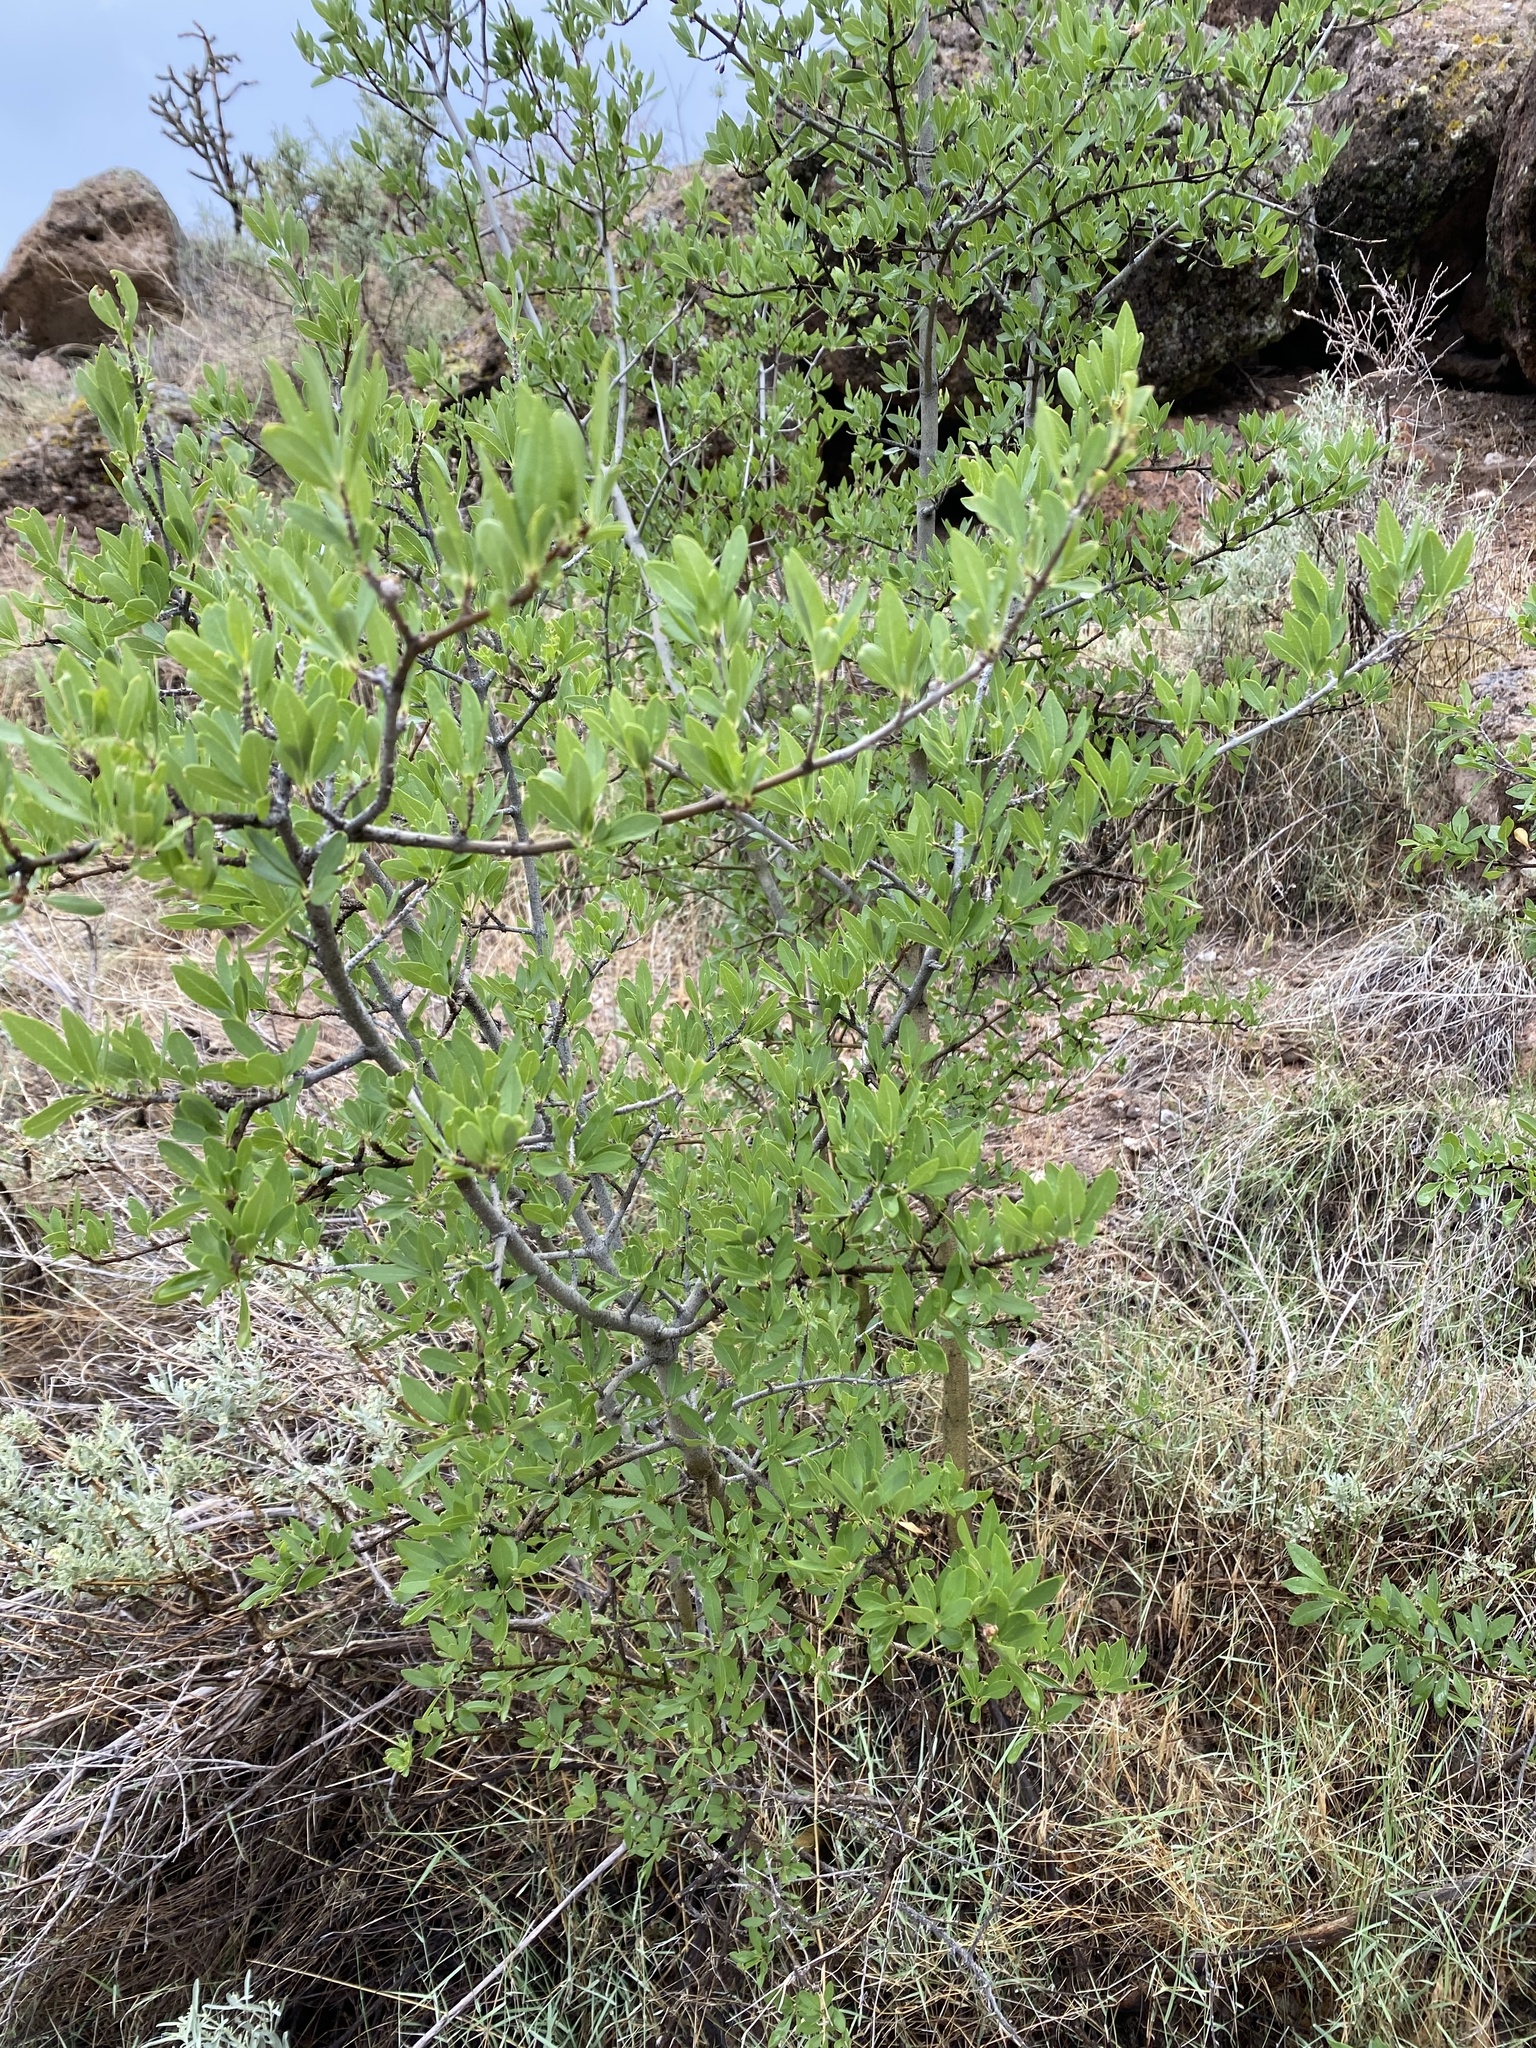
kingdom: Plantae
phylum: Tracheophyta
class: Magnoliopsida
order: Lamiales
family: Oleaceae
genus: Forestiera
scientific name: Forestiera pubescens
